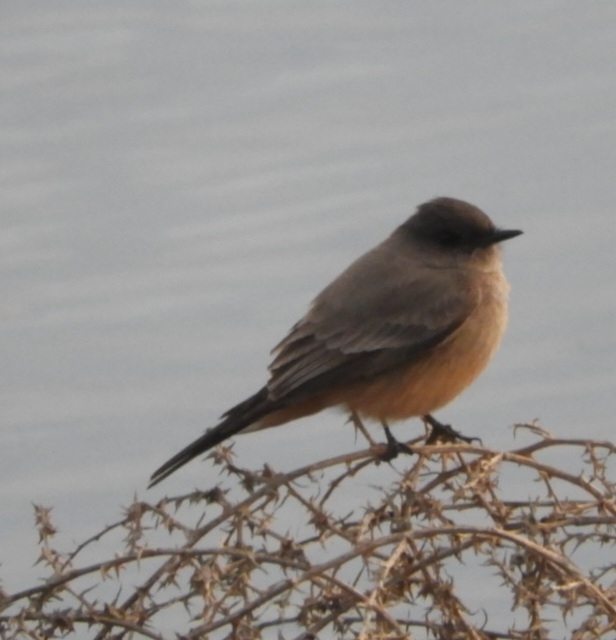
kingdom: Animalia
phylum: Chordata
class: Aves
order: Passeriformes
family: Tyrannidae
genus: Sayornis
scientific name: Sayornis saya
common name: Say's phoebe
